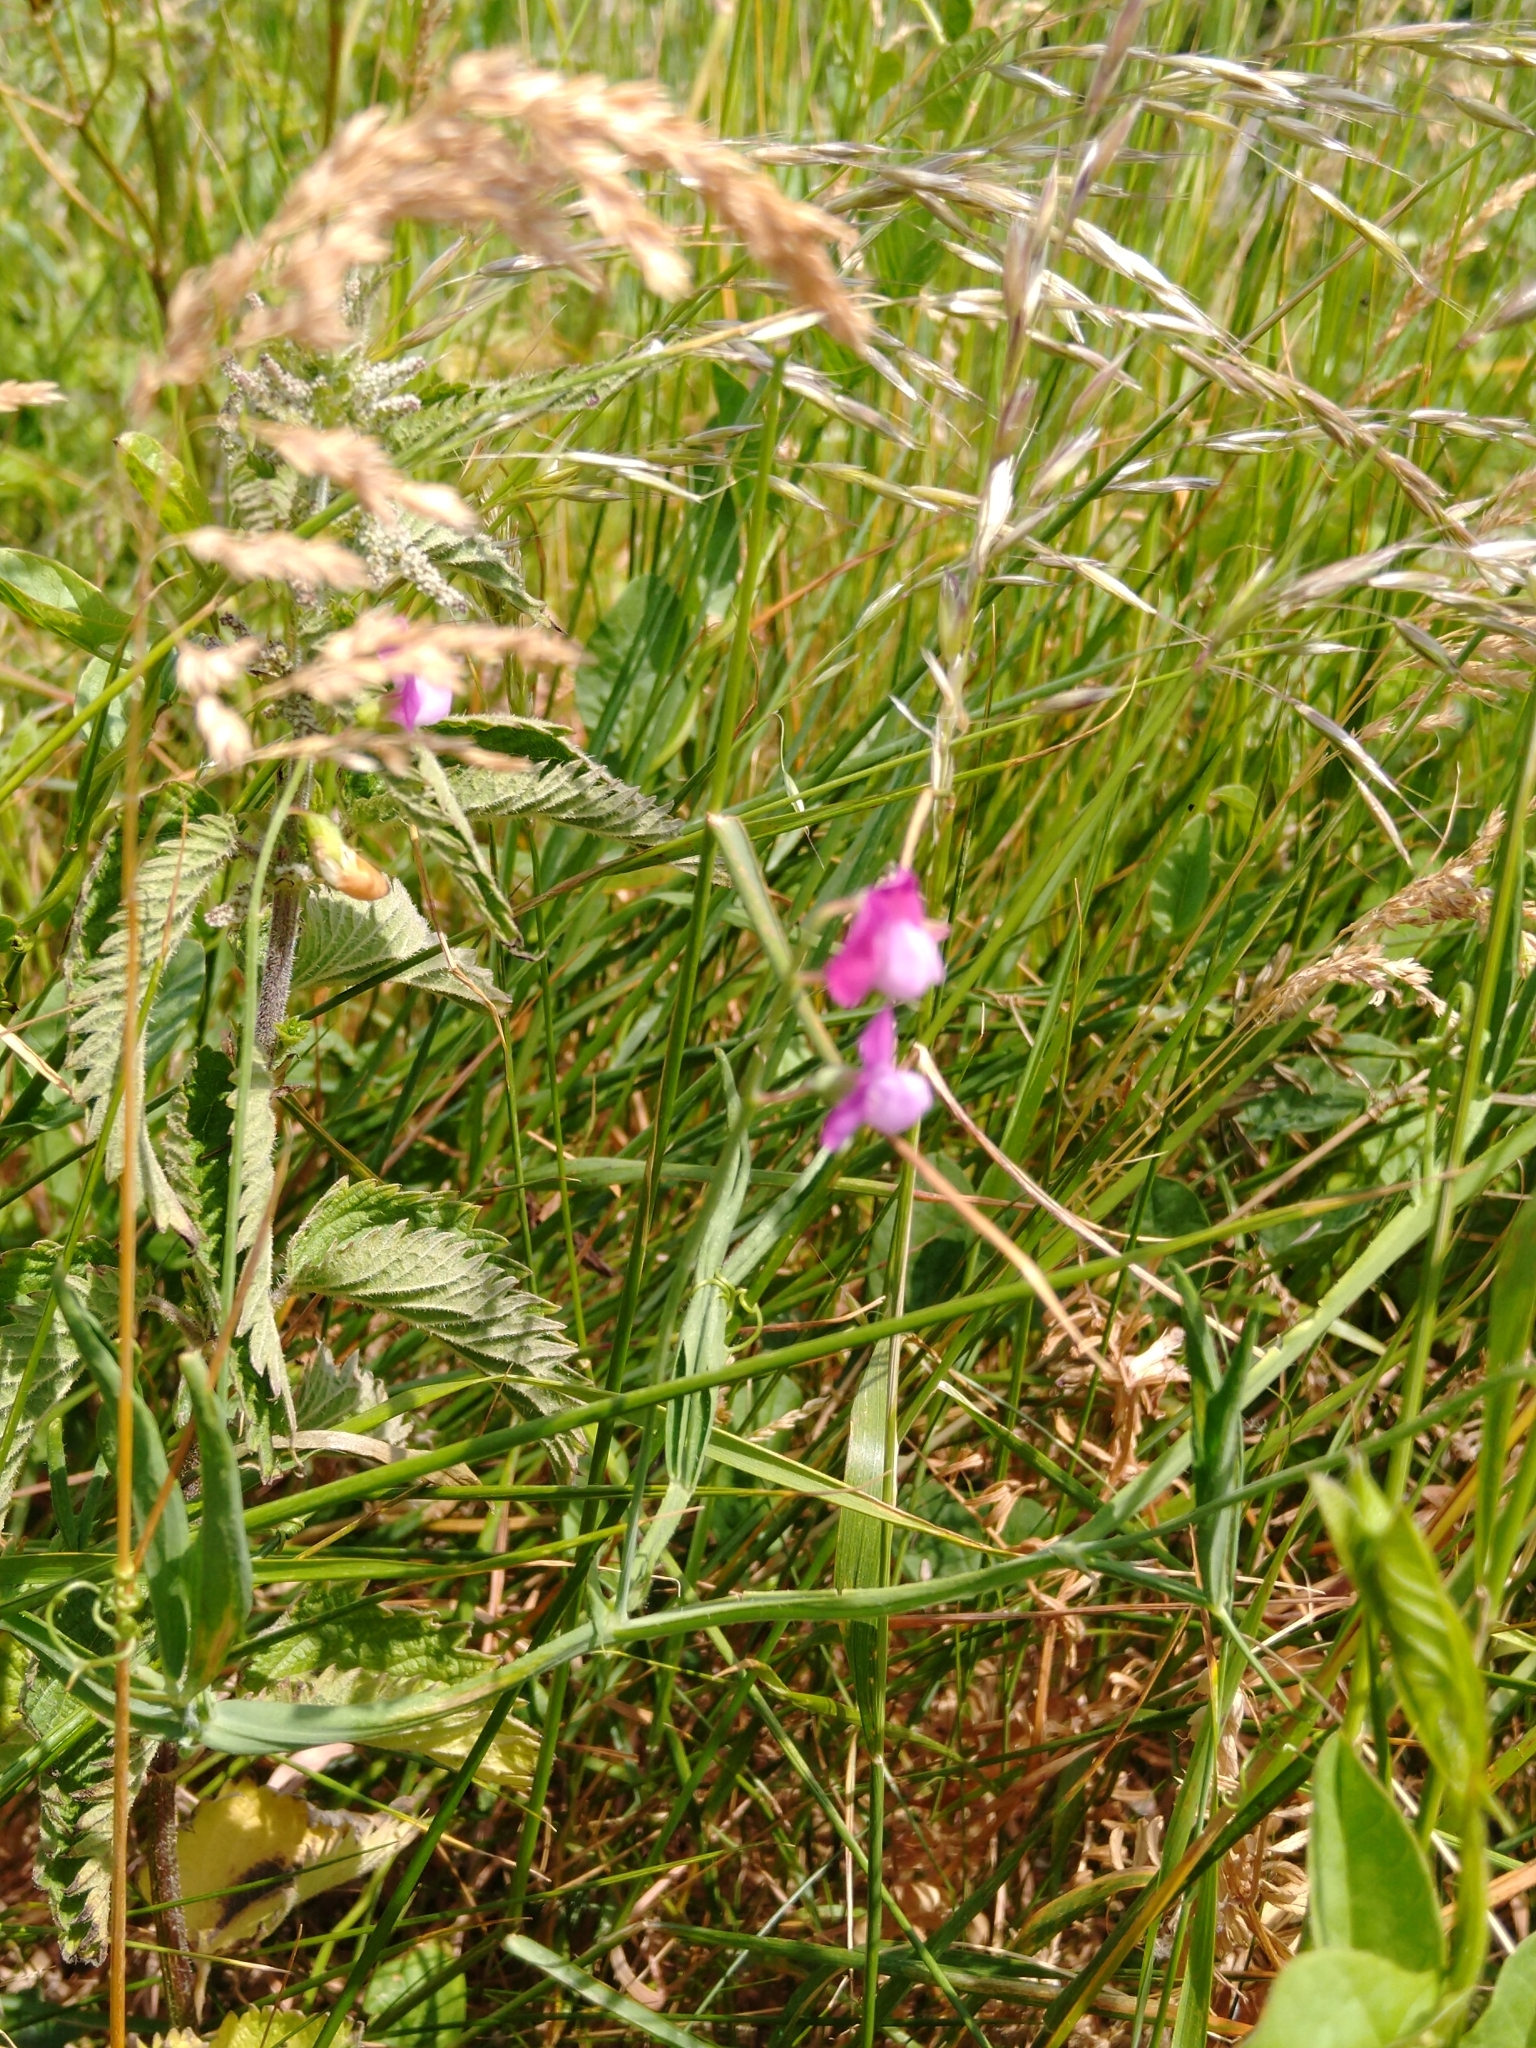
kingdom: Plantae
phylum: Tracheophyta
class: Magnoliopsida
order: Fabales
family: Fabaceae
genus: Lathyrus
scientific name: Lathyrus hirsutus
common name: Hairy vetchling
